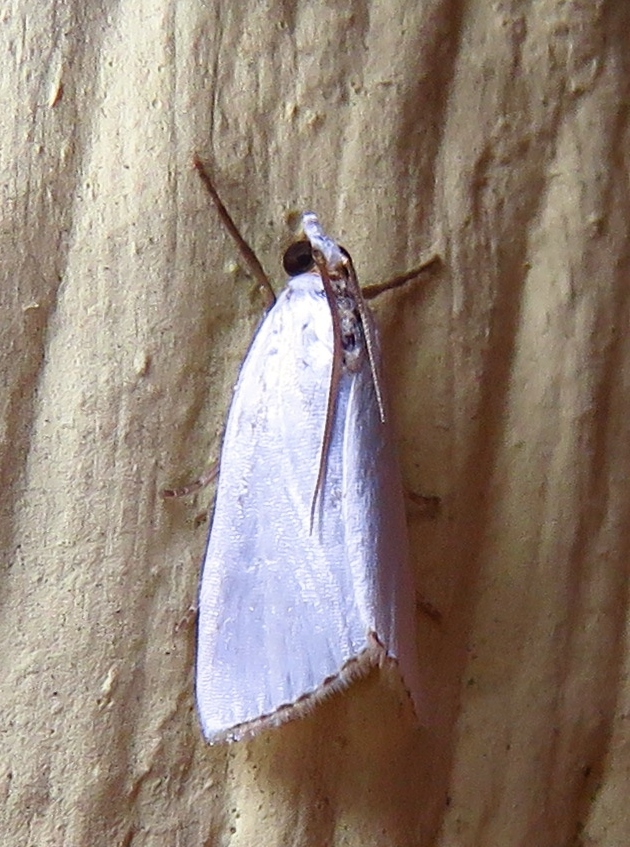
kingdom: Animalia
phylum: Arthropoda
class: Insecta
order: Lepidoptera
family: Crambidae
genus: Argyria
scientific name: Argyria nivalis
